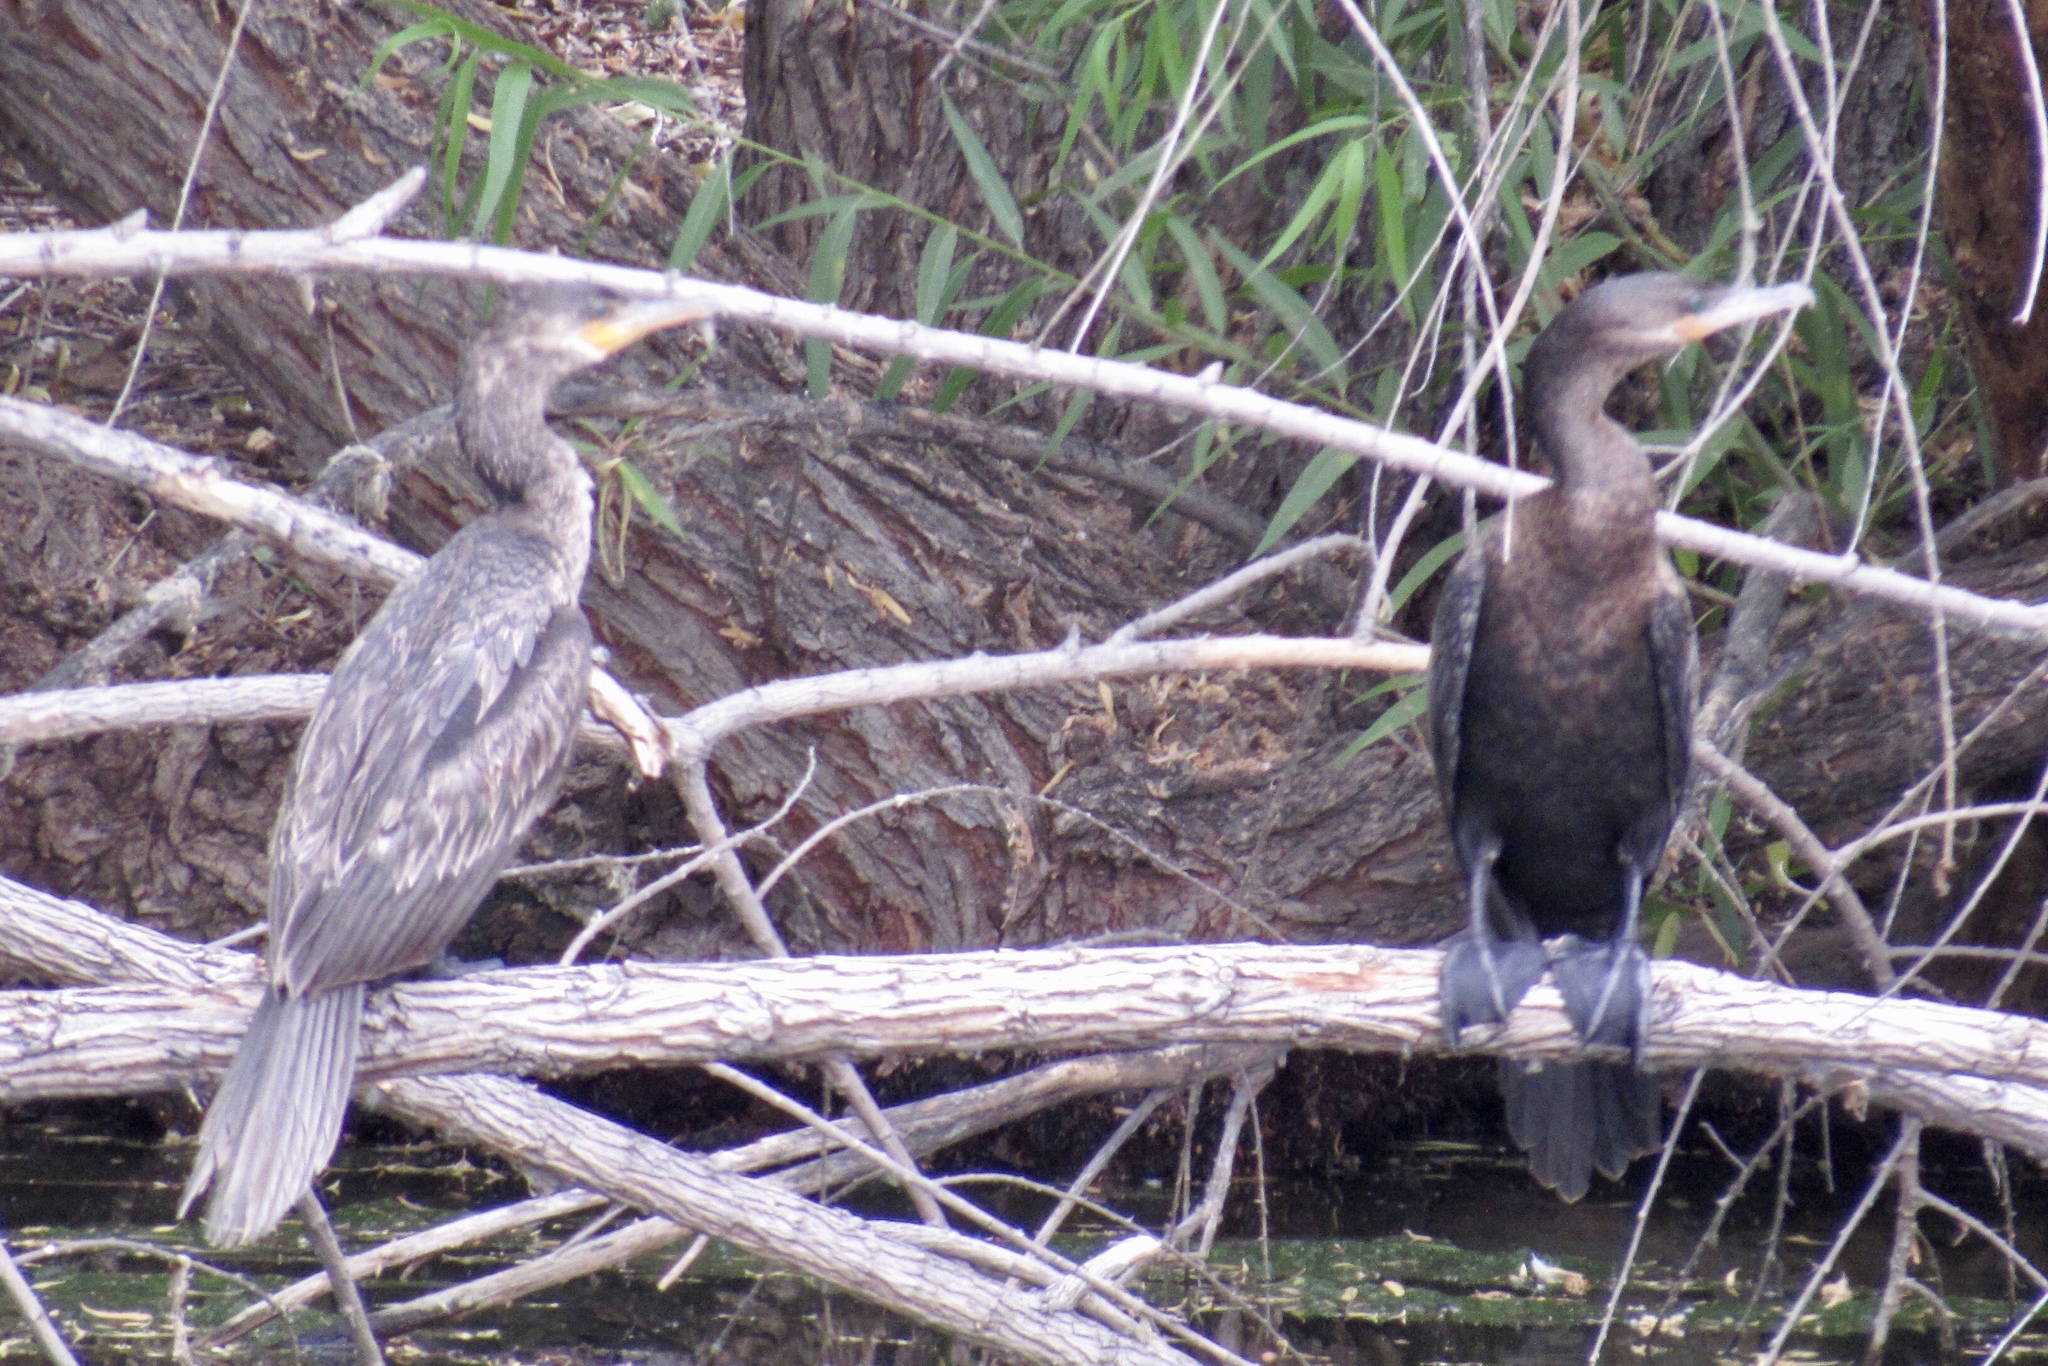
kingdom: Animalia
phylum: Chordata
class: Aves
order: Suliformes
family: Phalacrocoracidae
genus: Phalacrocorax
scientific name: Phalacrocorax brasilianus
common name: Neotropic cormorant
